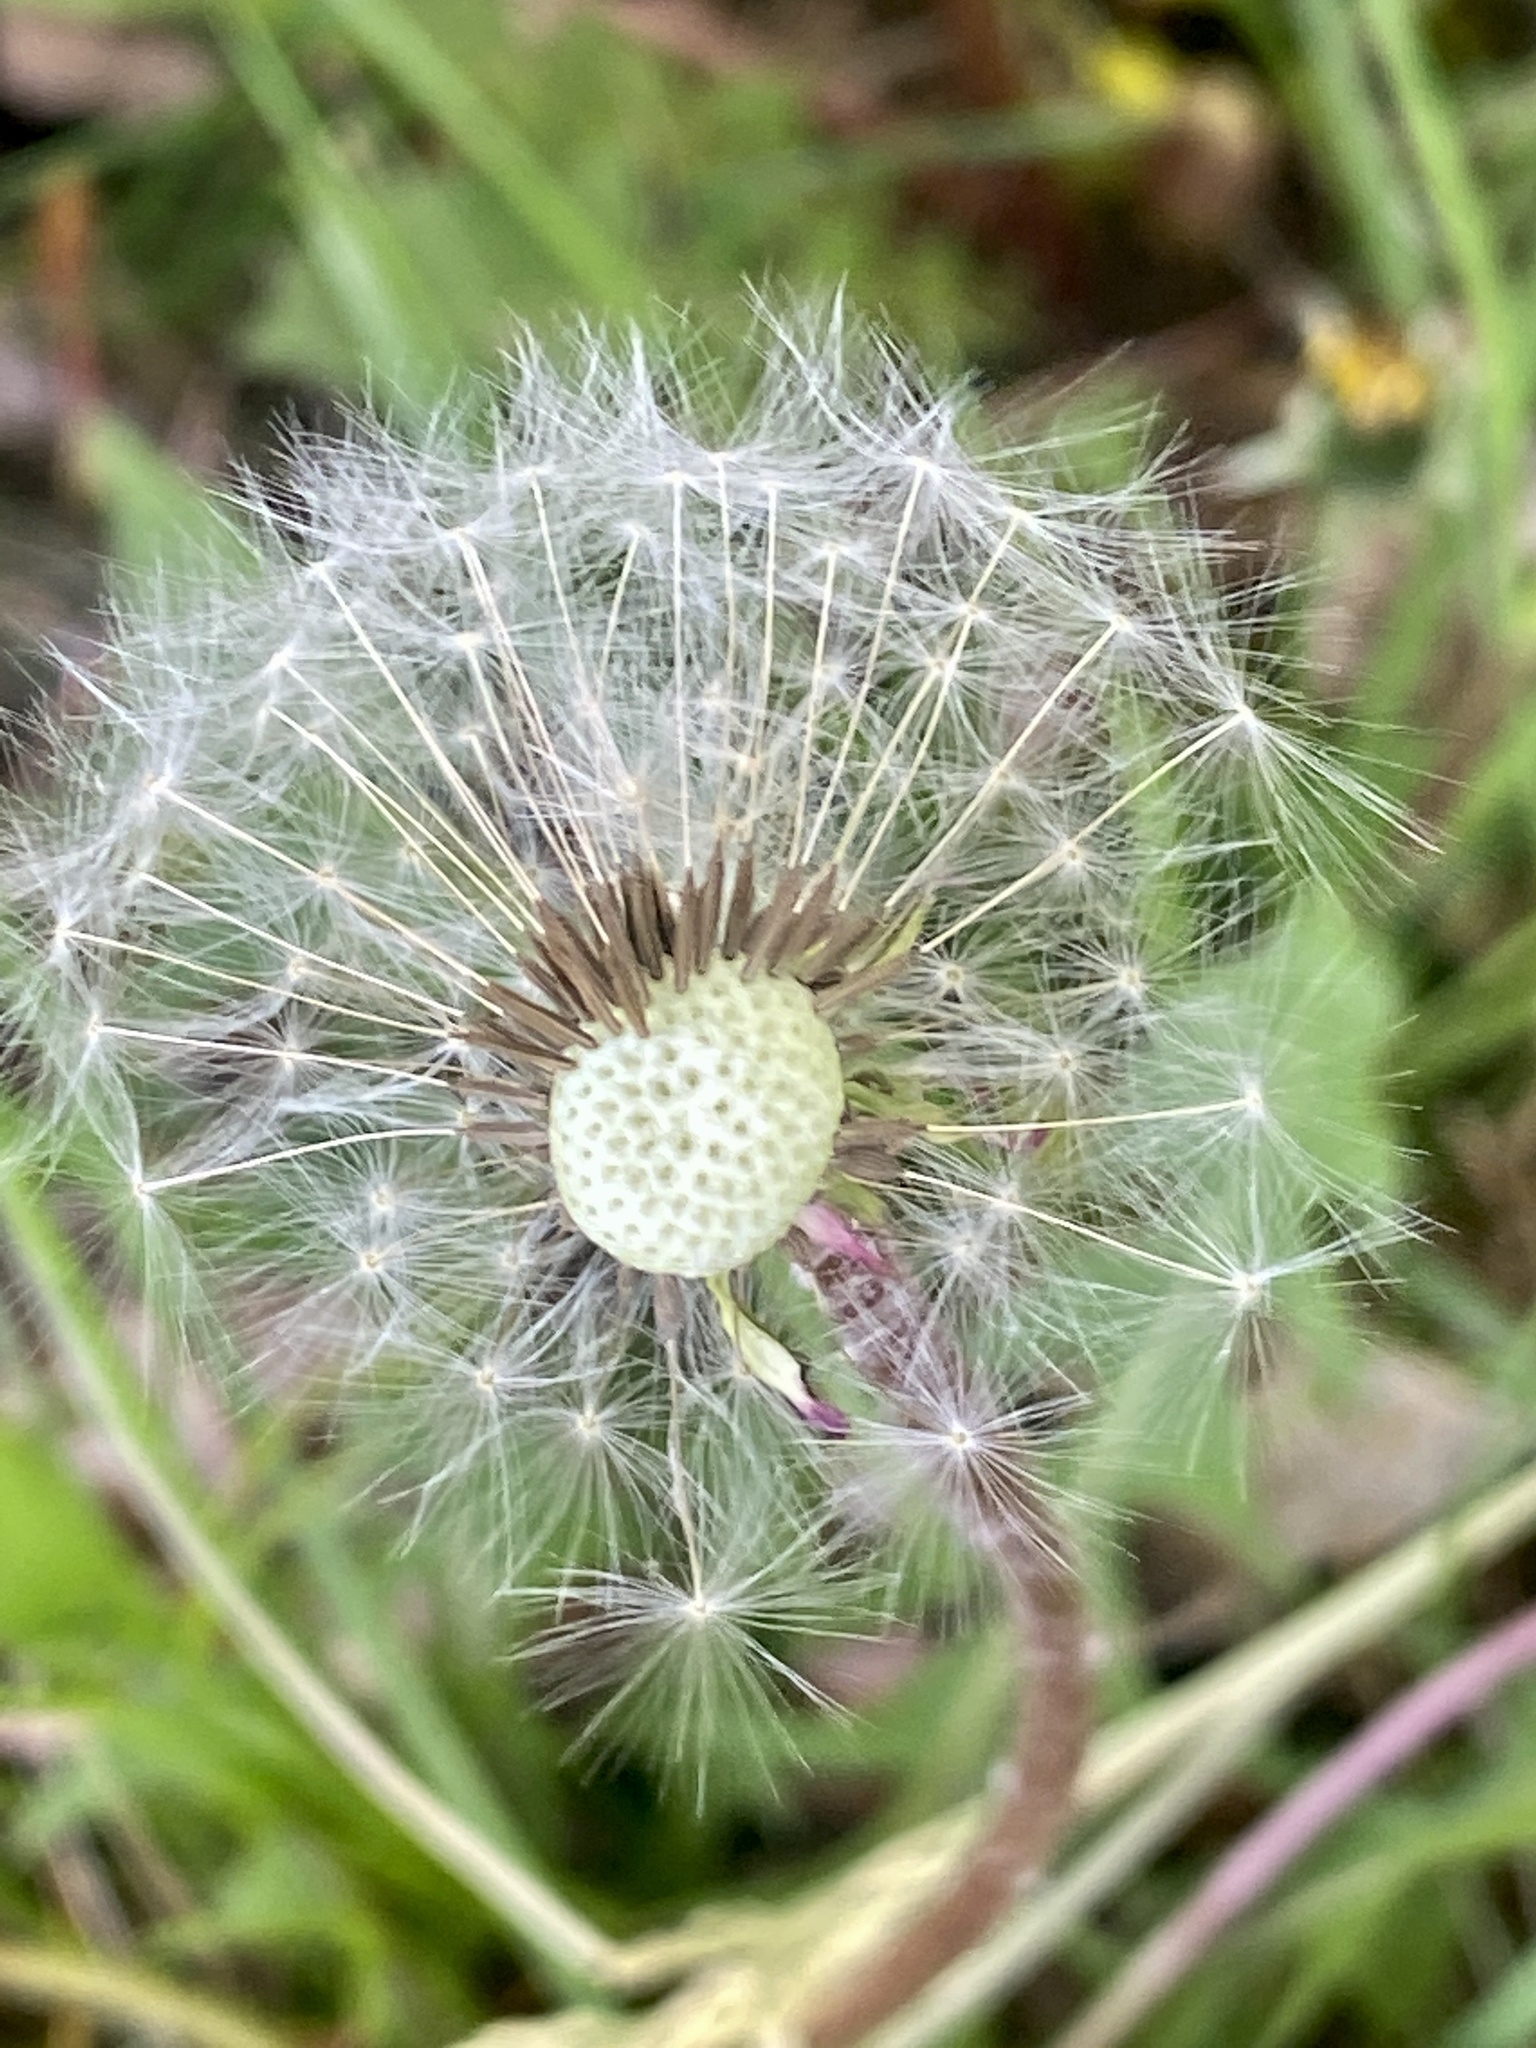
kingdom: Plantae
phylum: Tracheophyta
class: Magnoliopsida
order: Asterales
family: Asteraceae
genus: Taraxacum
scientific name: Taraxacum officinale
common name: Common dandelion
